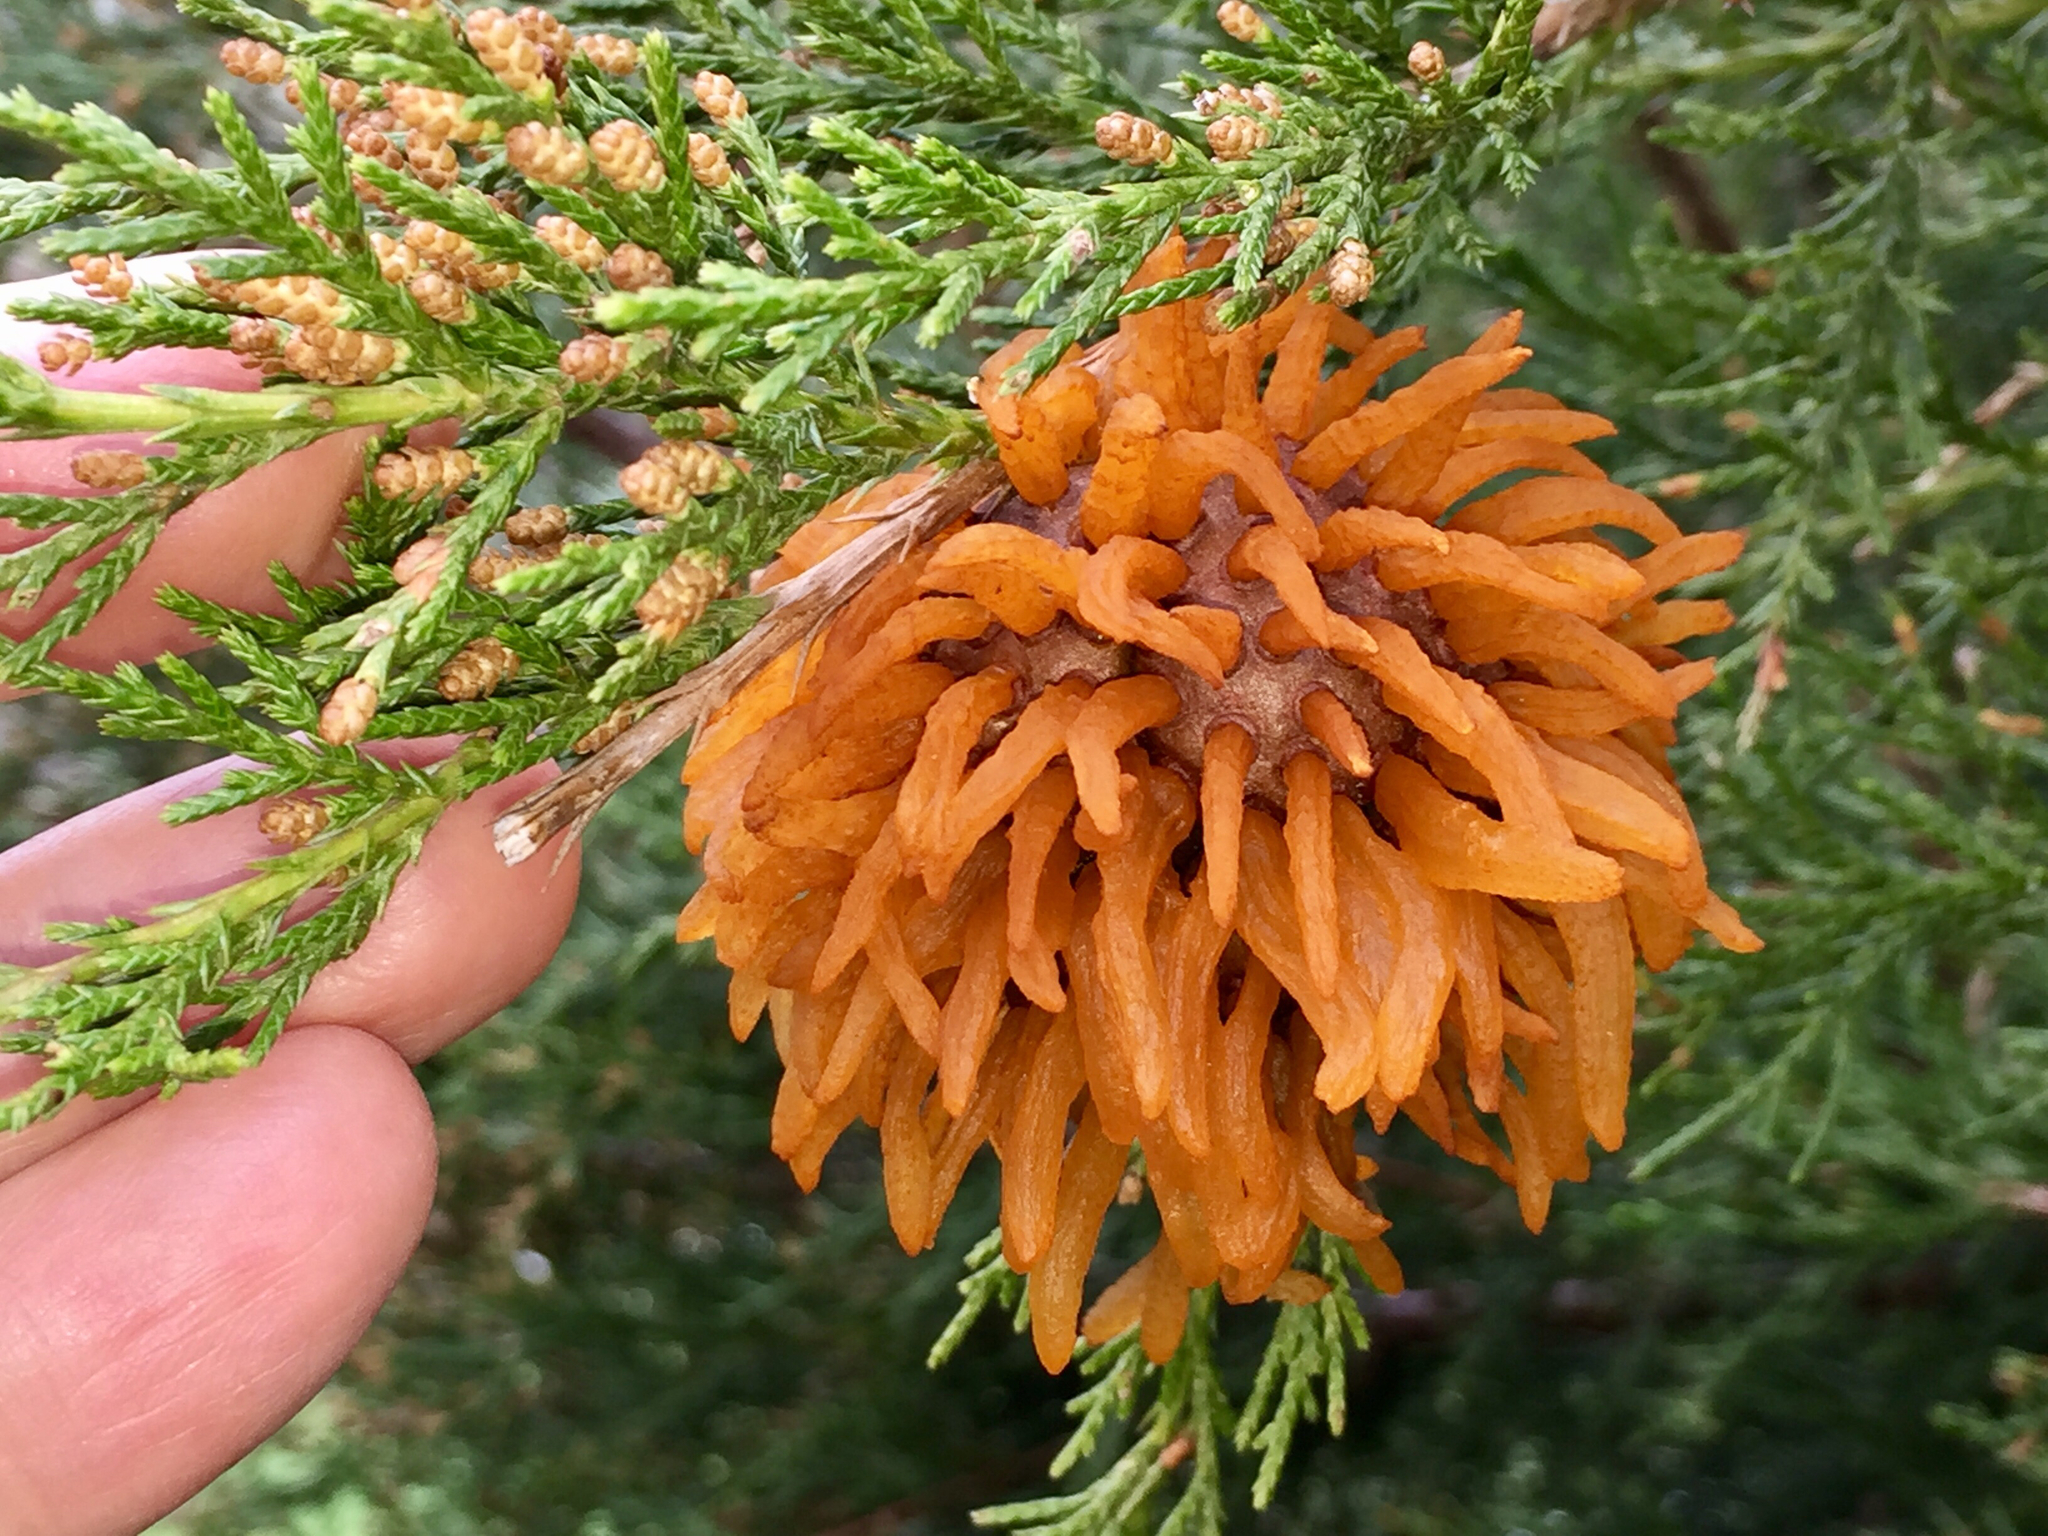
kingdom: Fungi
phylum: Basidiomycota
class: Pucciniomycetes
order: Pucciniales
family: Gymnosporangiaceae
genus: Gymnosporangium
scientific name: Gymnosporangium juniperi-virginianae
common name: Juniper-apple rust
